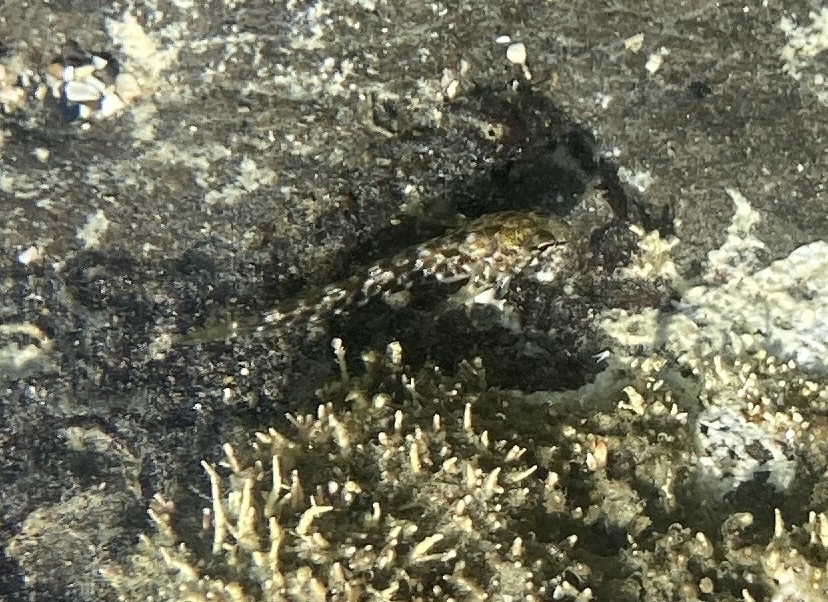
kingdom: Animalia
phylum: Chordata
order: Perciformes
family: Tripterygiidae
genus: Bellapiscis
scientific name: Bellapiscis medius
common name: Twister
